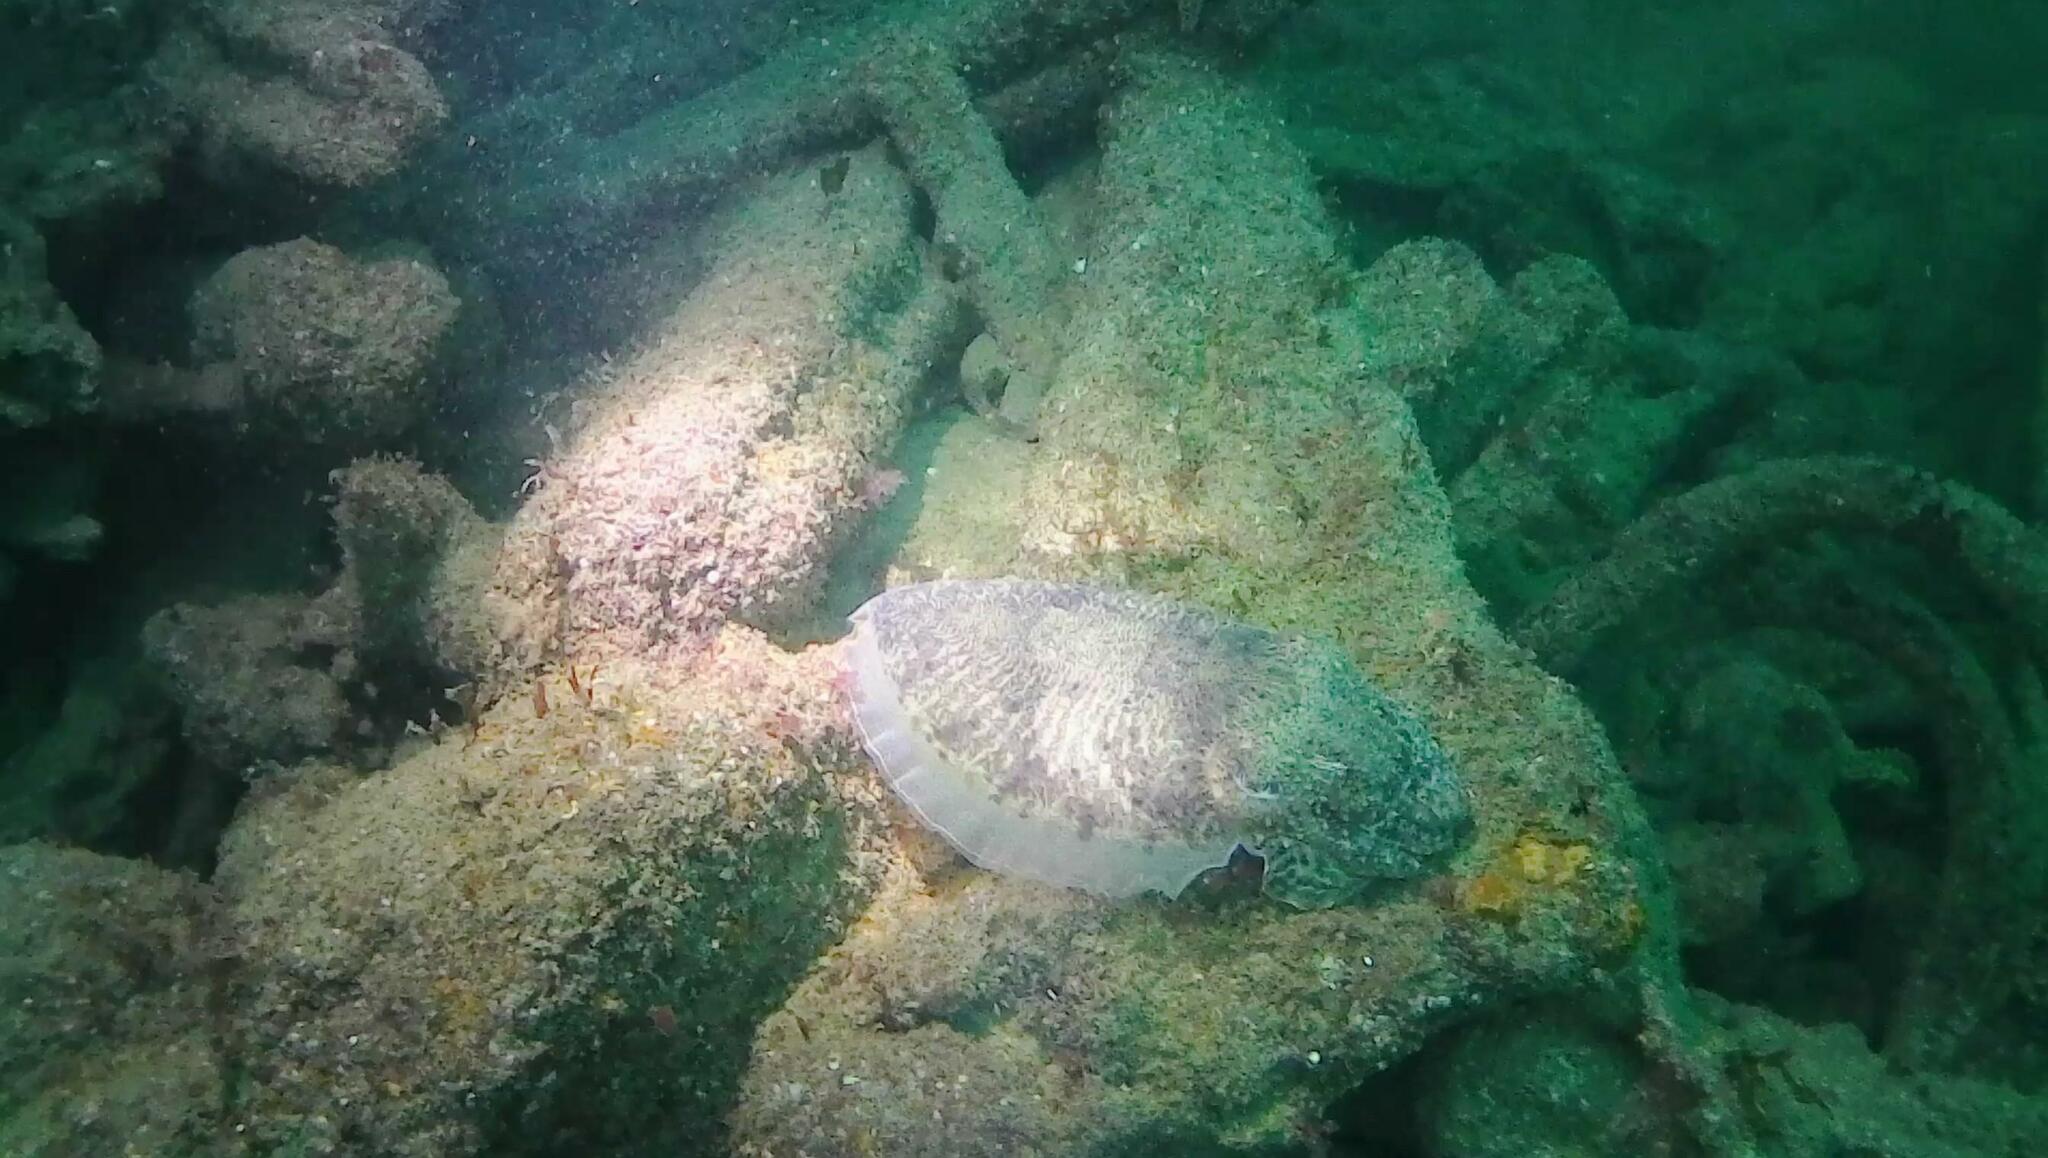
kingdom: Animalia
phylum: Mollusca
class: Cephalopoda
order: Sepiida
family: Sepiidae
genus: Sepia
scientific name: Sepia officinalis
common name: Common cuttlefish
